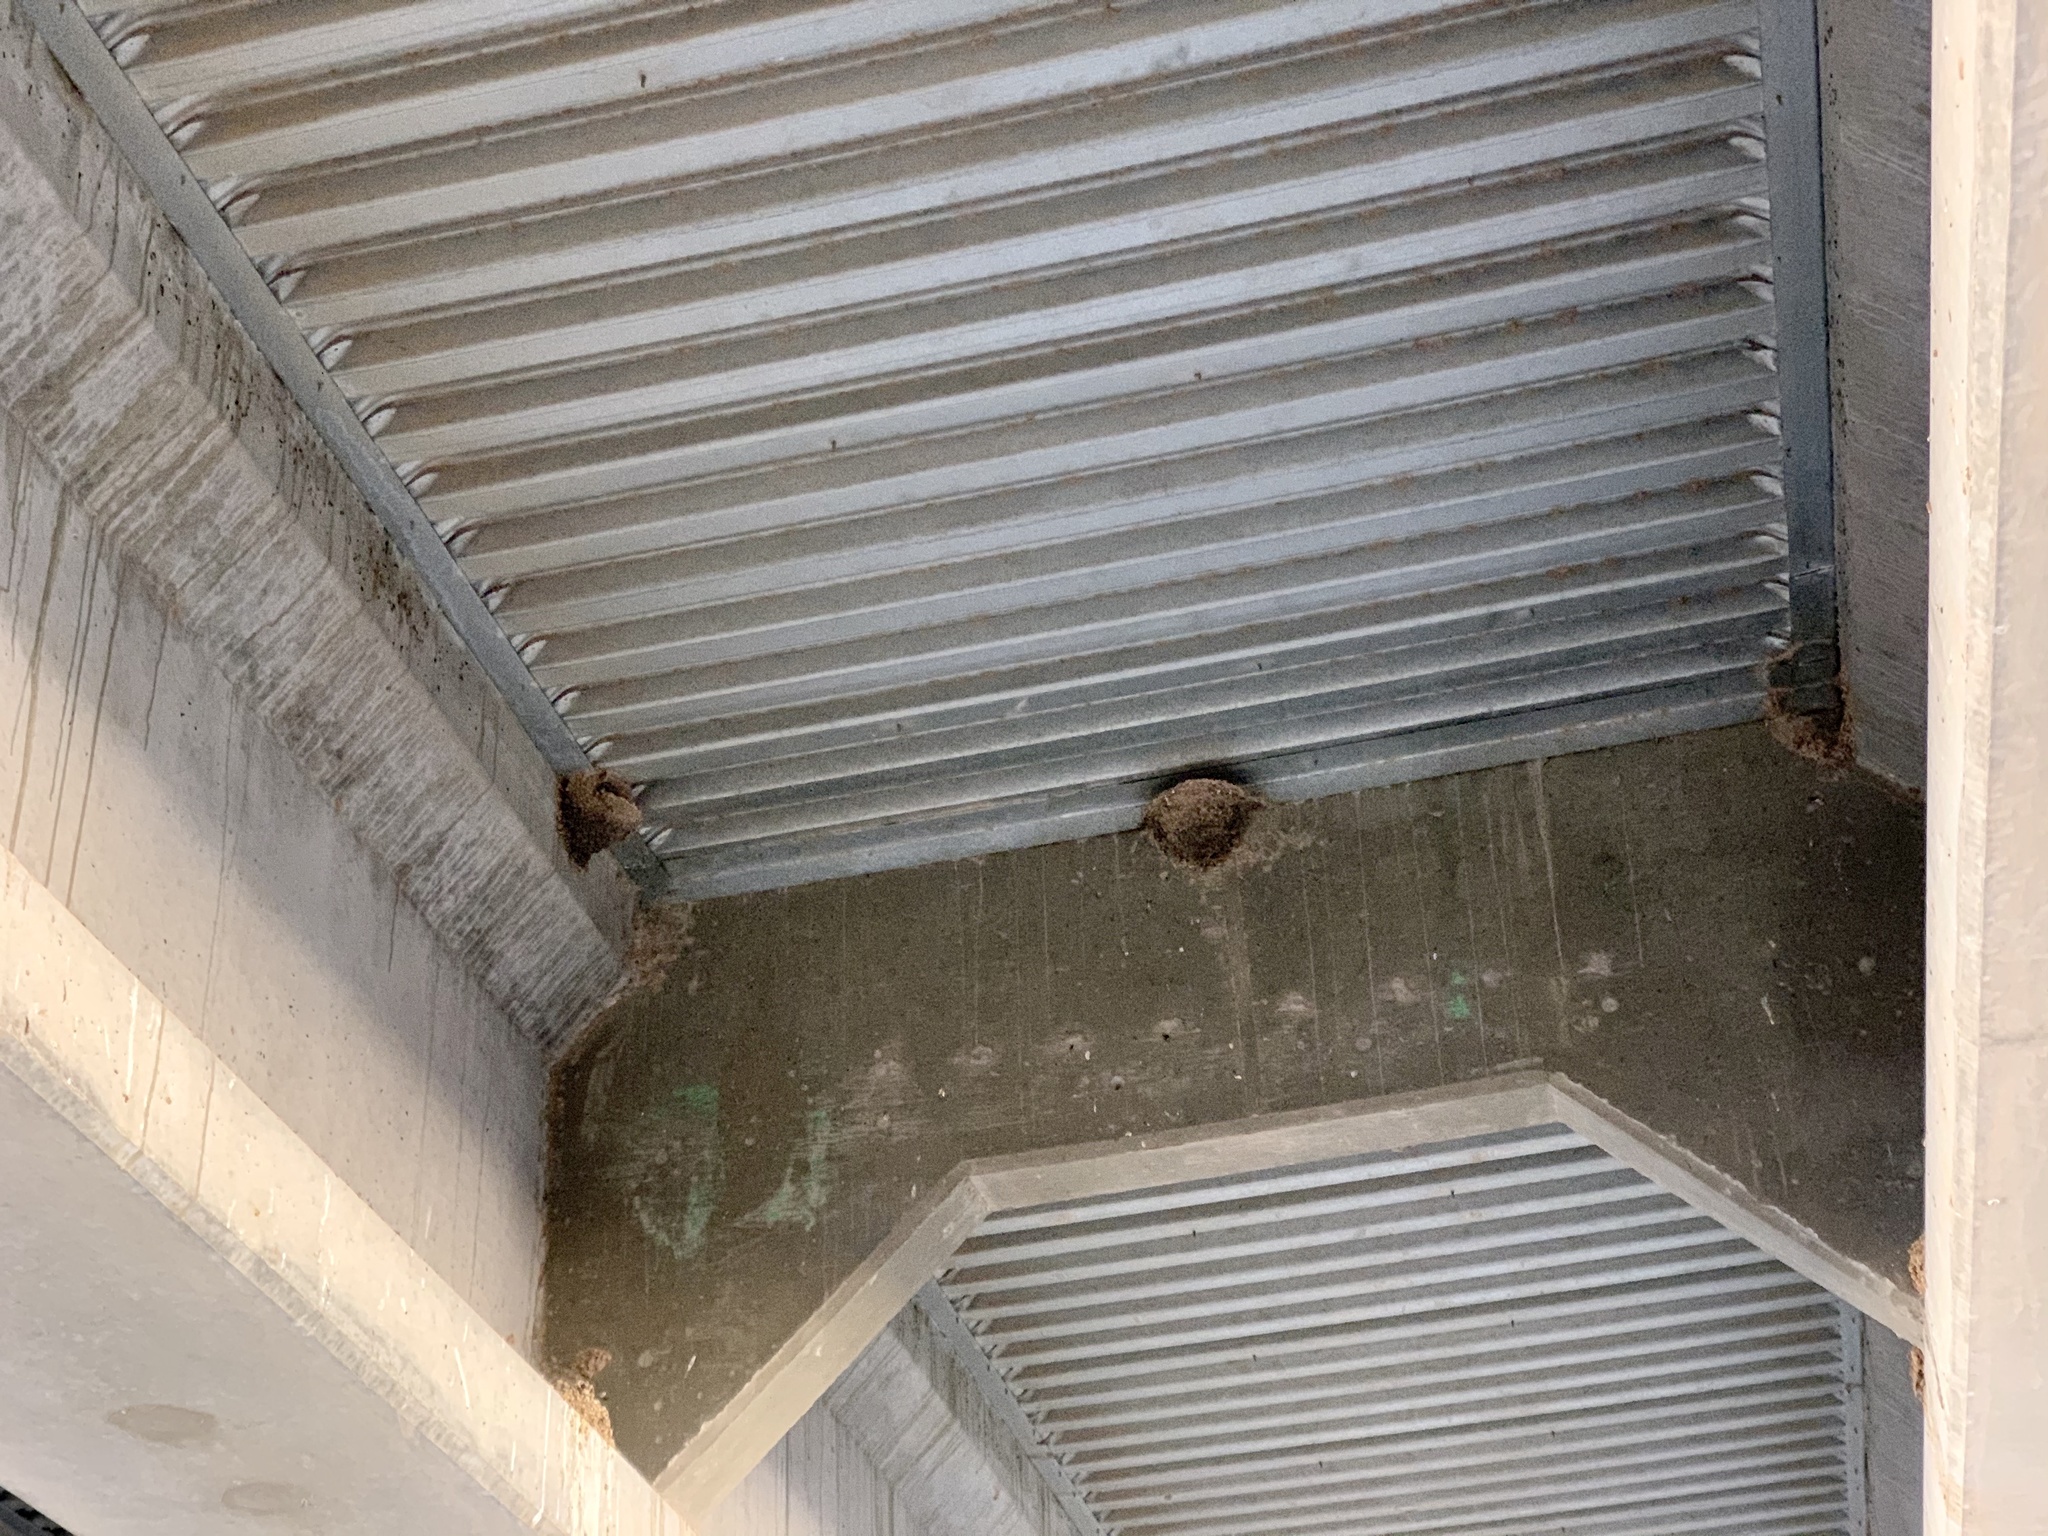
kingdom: Animalia
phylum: Chordata
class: Aves
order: Passeriformes
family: Hirundinidae
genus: Hirundo
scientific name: Hirundo rustica
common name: Barn swallow
